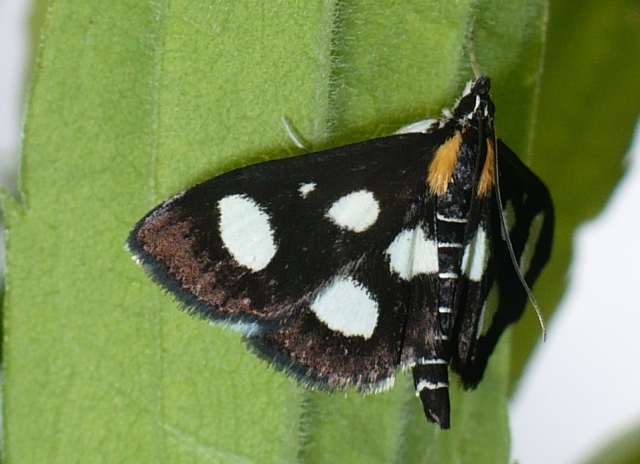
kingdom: Animalia
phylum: Arthropoda
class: Insecta
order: Lepidoptera
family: Crambidae
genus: Anania
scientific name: Anania funebris
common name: White-spotted sable moth
